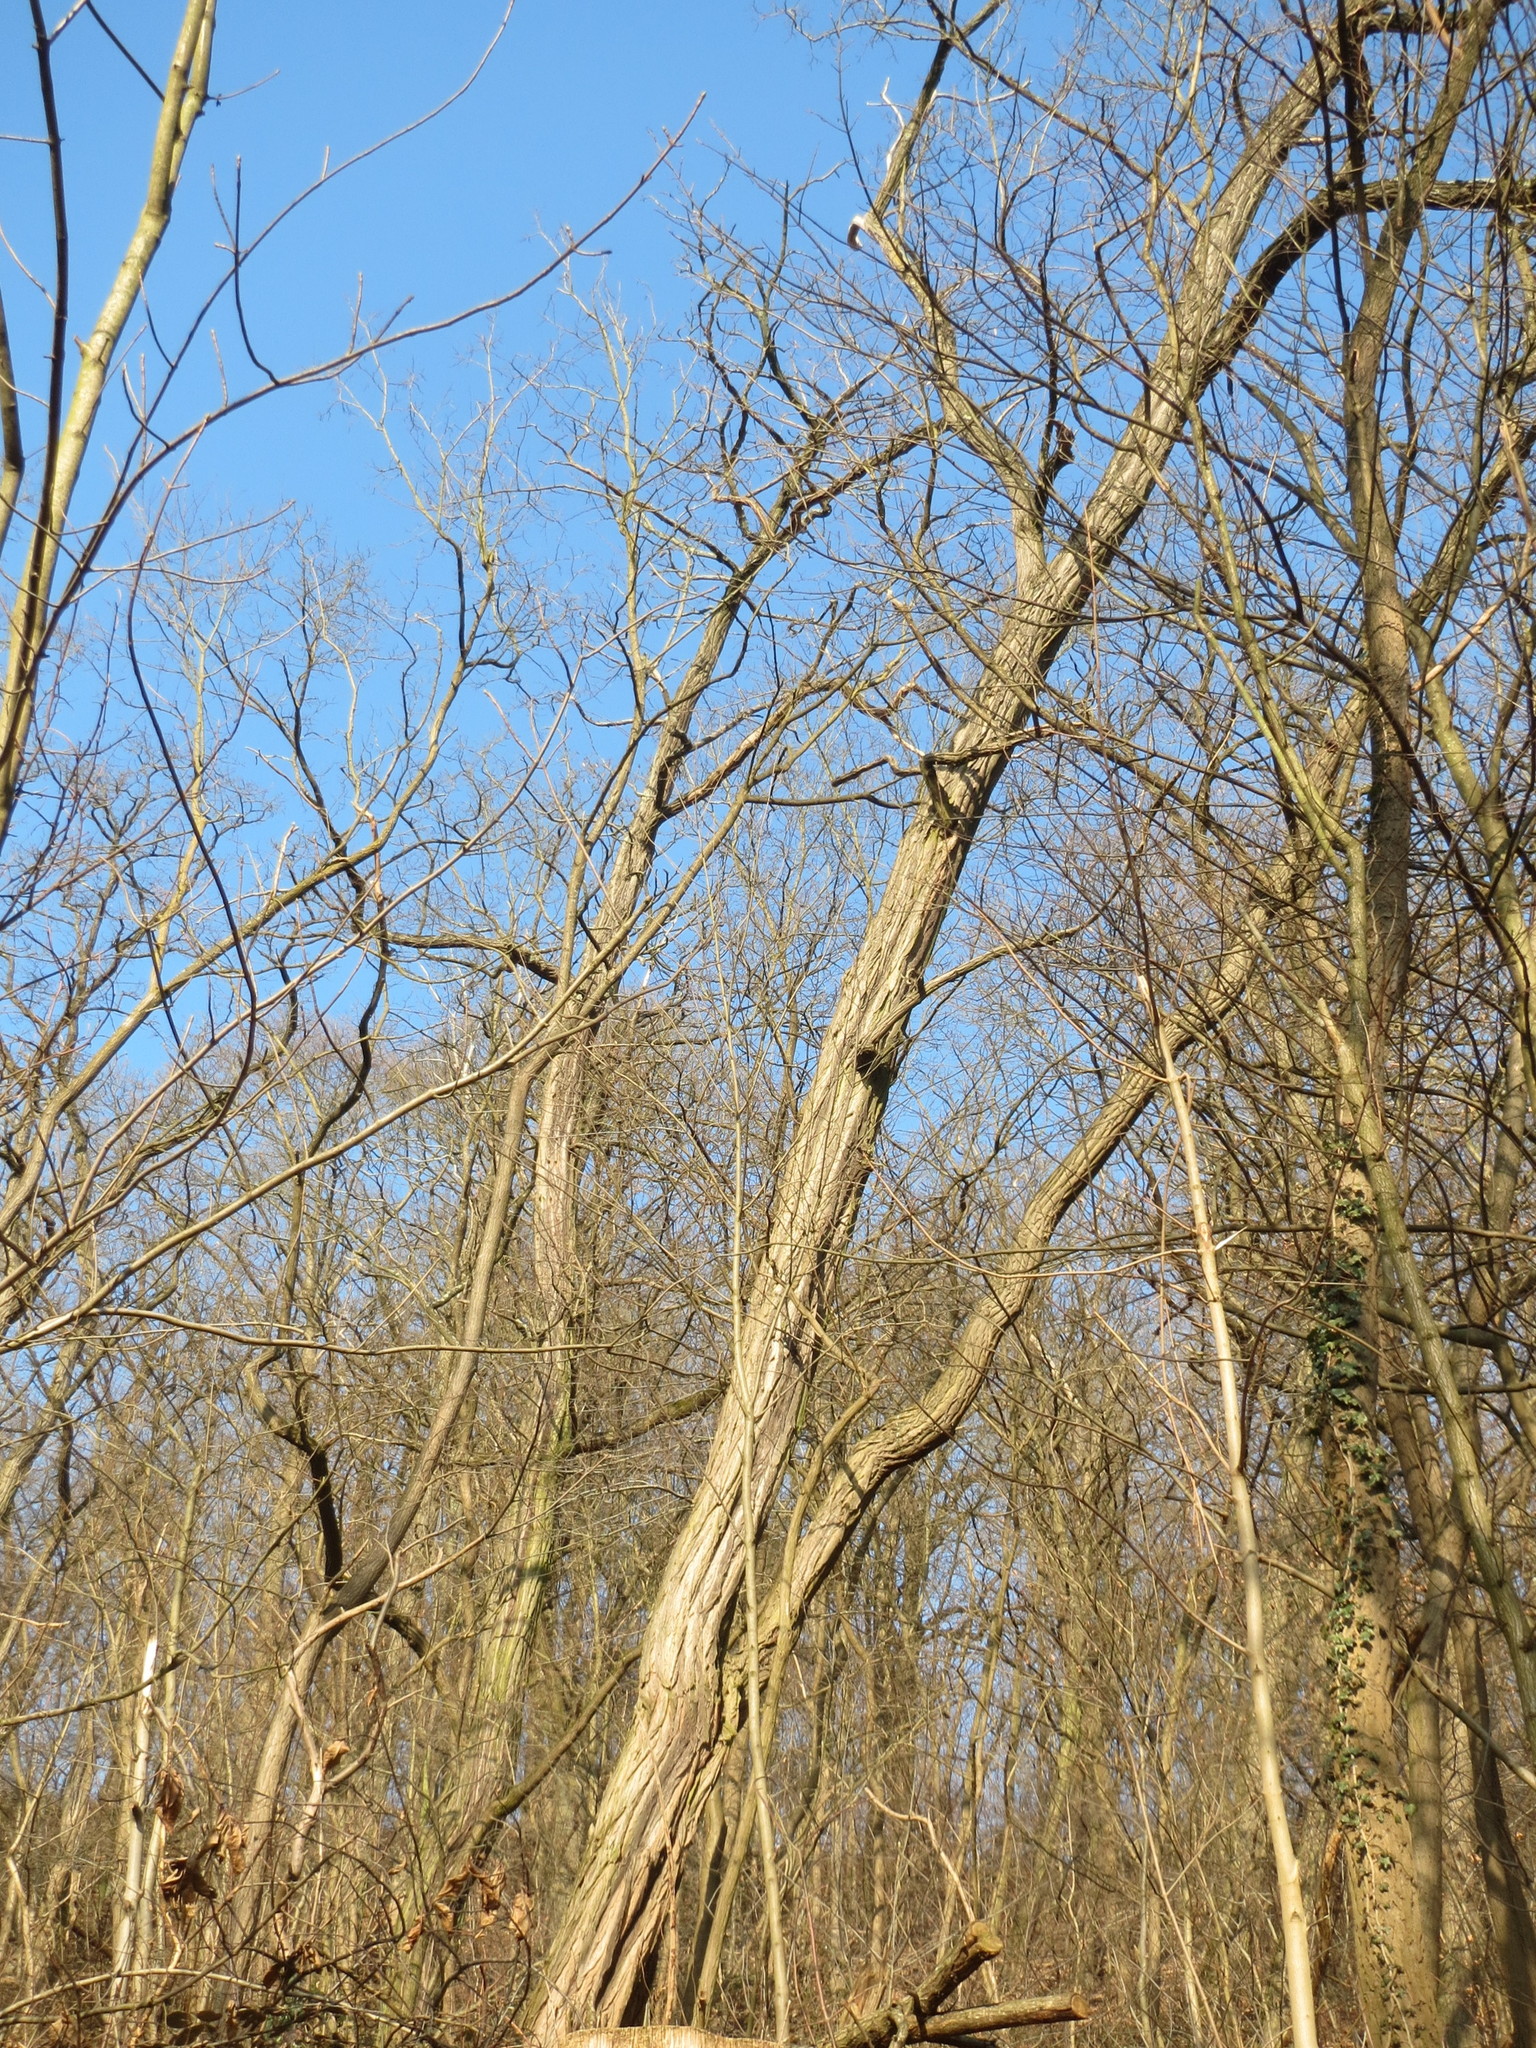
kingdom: Plantae
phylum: Tracheophyta
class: Magnoliopsida
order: Fabales
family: Fabaceae
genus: Robinia
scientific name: Robinia pseudoacacia
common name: Black locust
